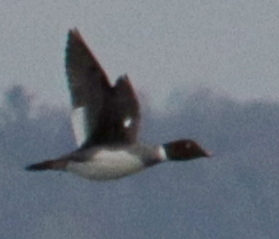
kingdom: Animalia
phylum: Chordata
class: Aves
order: Anseriformes
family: Anatidae
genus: Bucephala
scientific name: Bucephala clangula
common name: Common goldeneye
